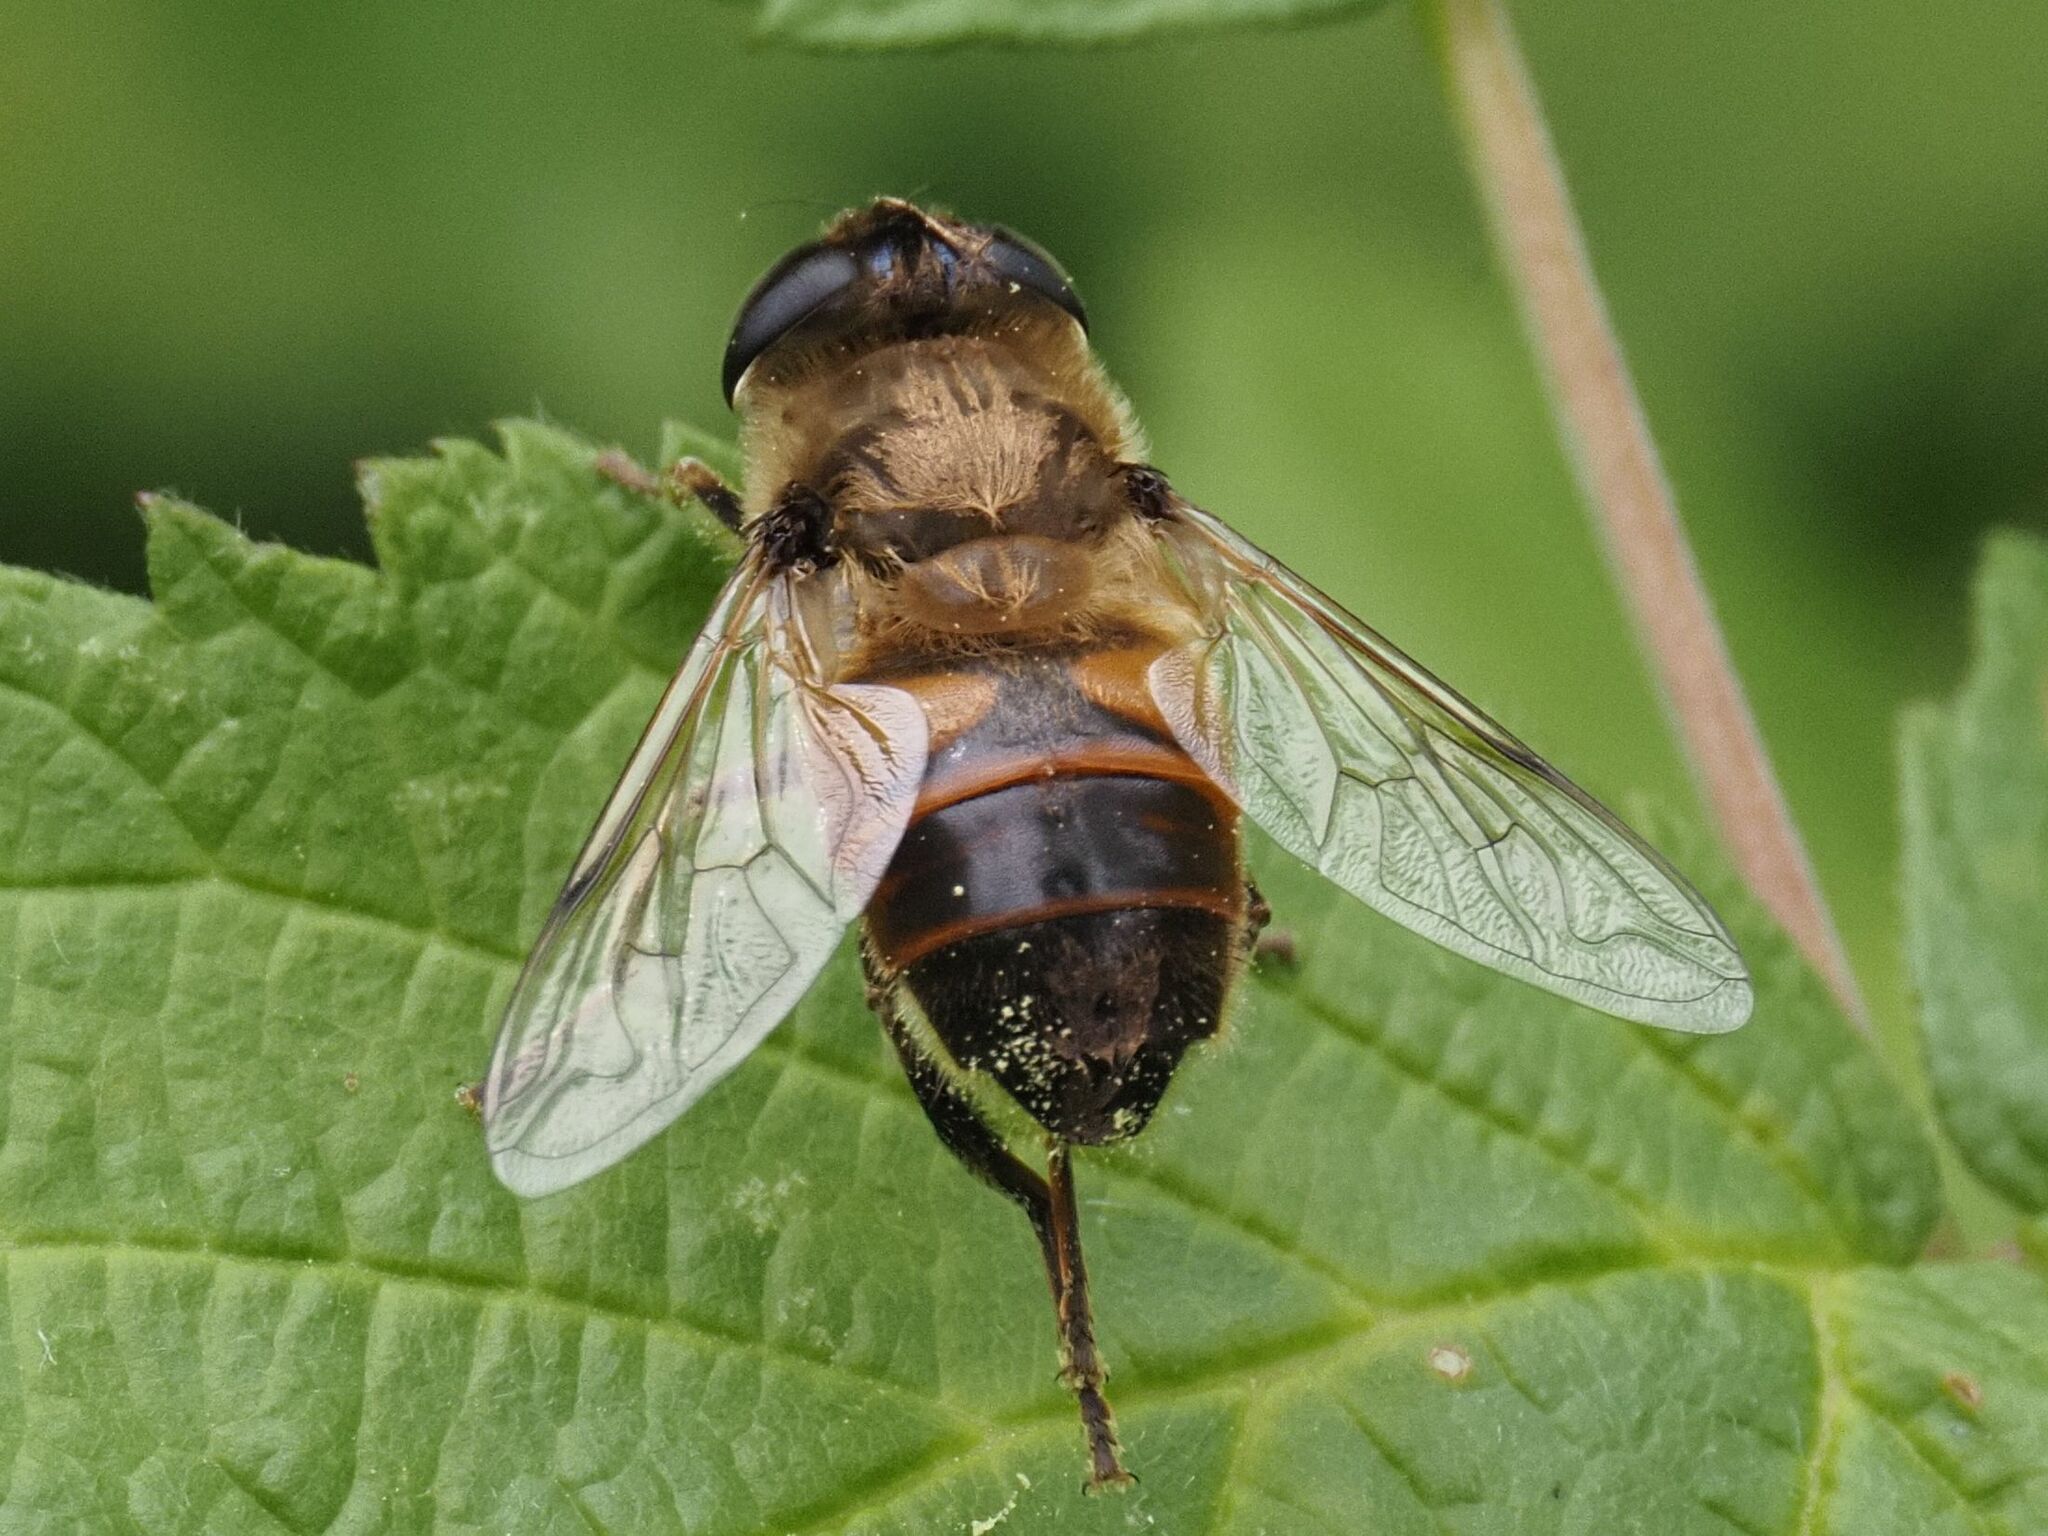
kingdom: Animalia
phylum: Arthropoda
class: Insecta
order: Diptera
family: Syrphidae
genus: Eristalis
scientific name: Eristalis tenax
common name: Drone fly
